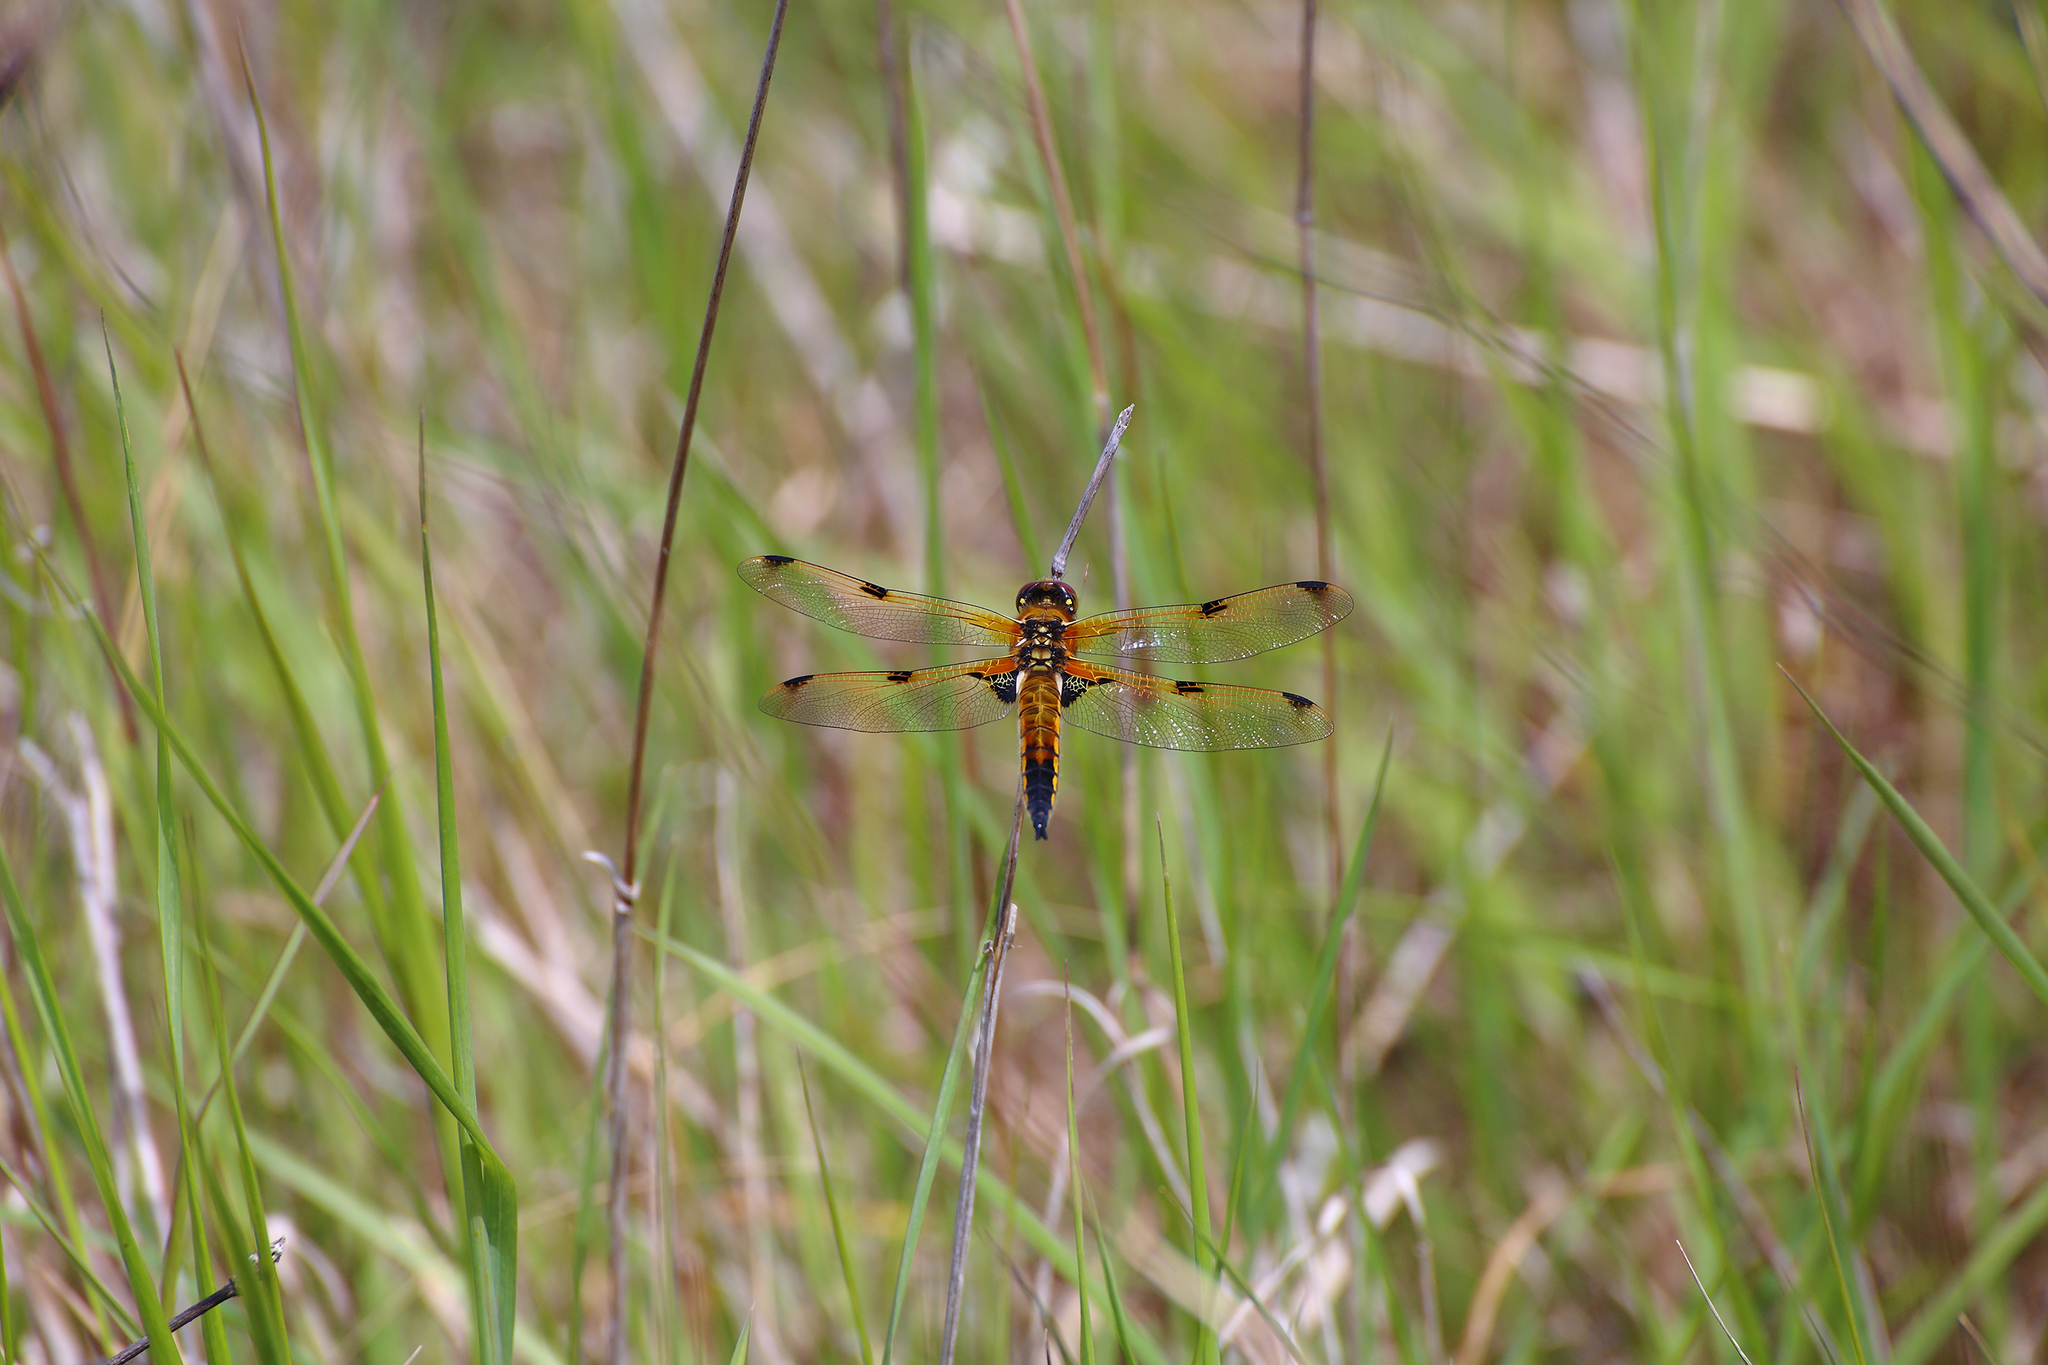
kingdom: Animalia
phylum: Arthropoda
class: Insecta
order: Odonata
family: Libellulidae
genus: Libellula
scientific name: Libellula quadrimaculata
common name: Four-spotted chaser
